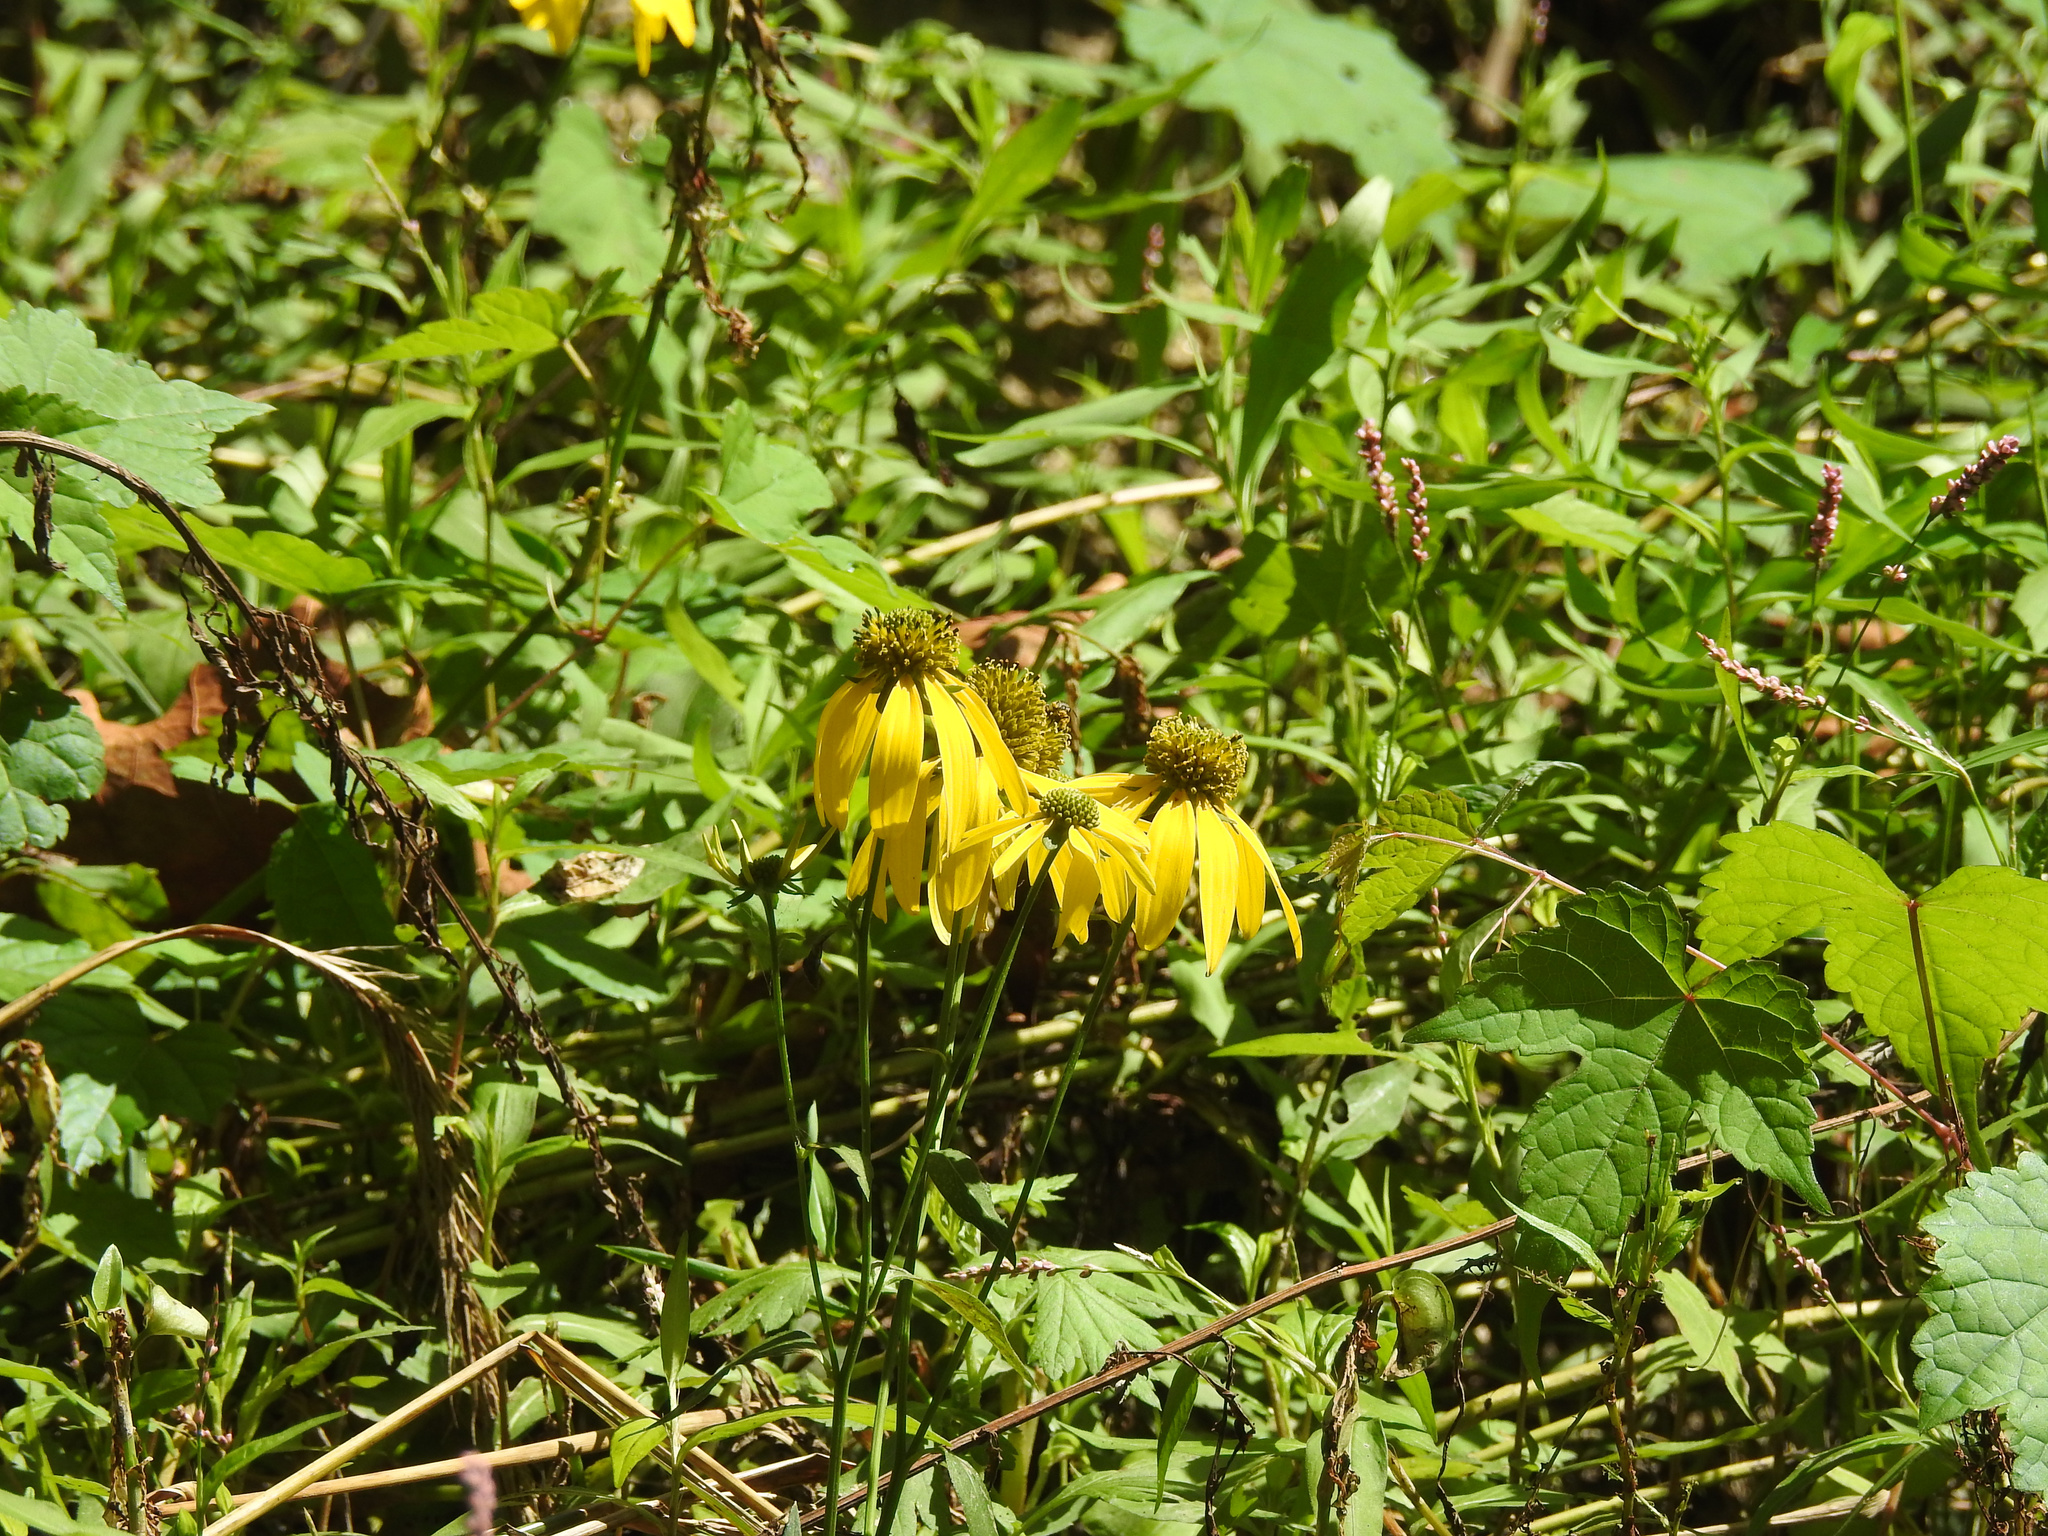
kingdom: Plantae
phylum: Tracheophyta
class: Magnoliopsida
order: Asterales
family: Asteraceae
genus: Rudbeckia
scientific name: Rudbeckia laciniata
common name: Coneflower
